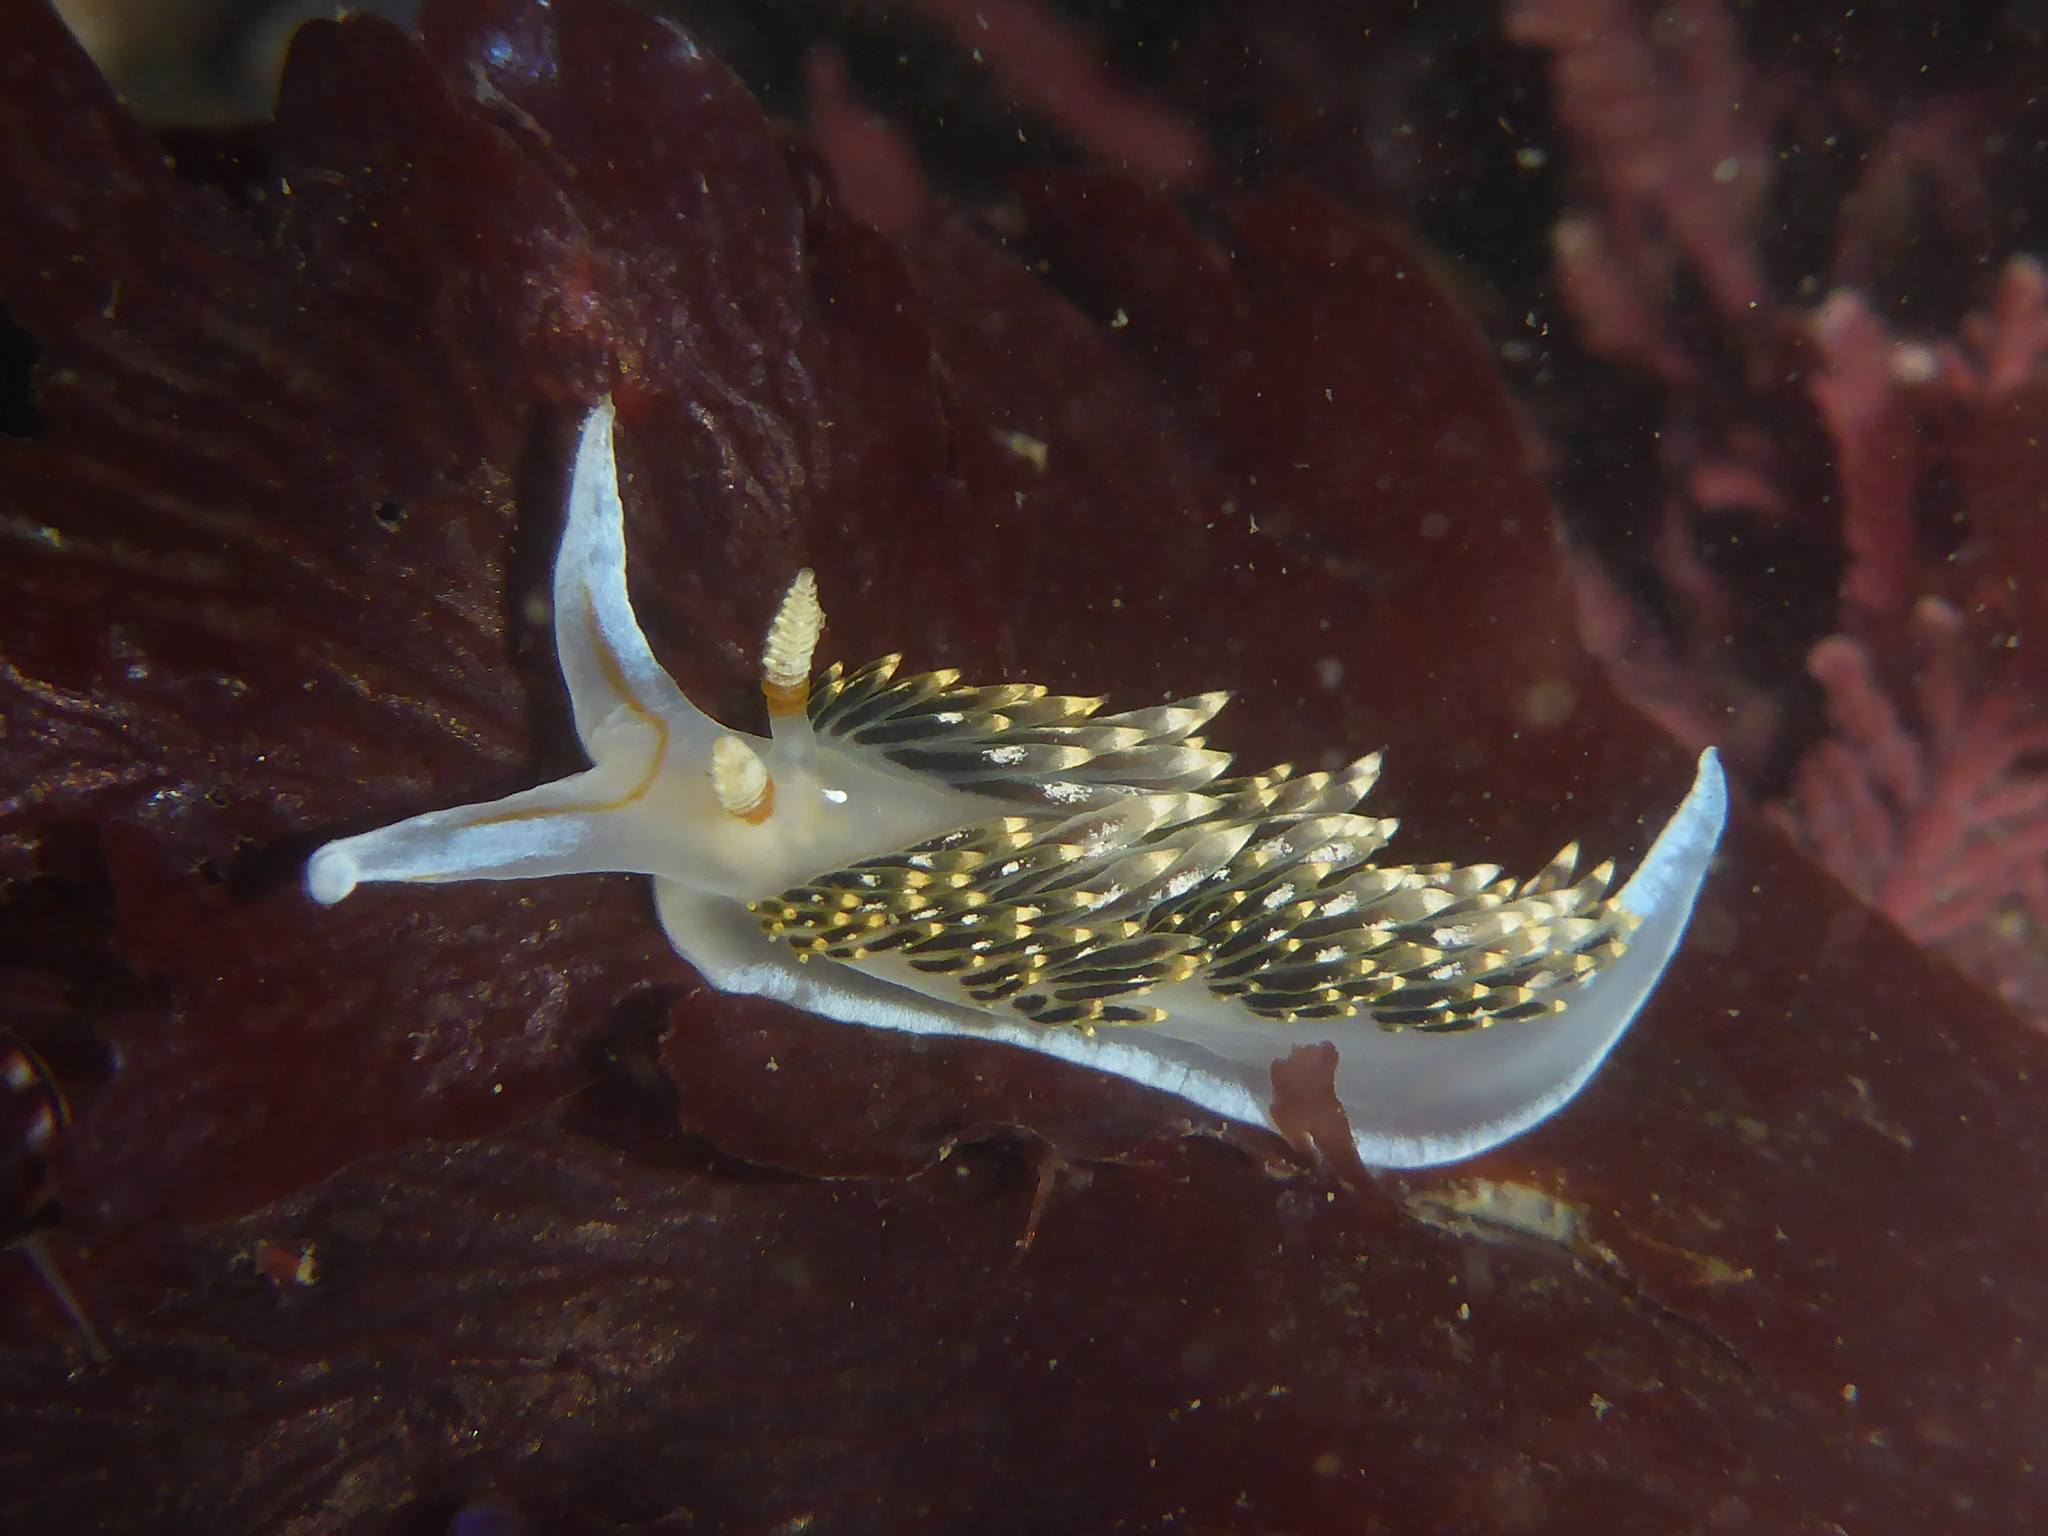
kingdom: Animalia
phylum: Mollusca
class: Gastropoda
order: Nudibranchia
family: Facelinidae
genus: Phidiana
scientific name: Phidiana hiltoni
